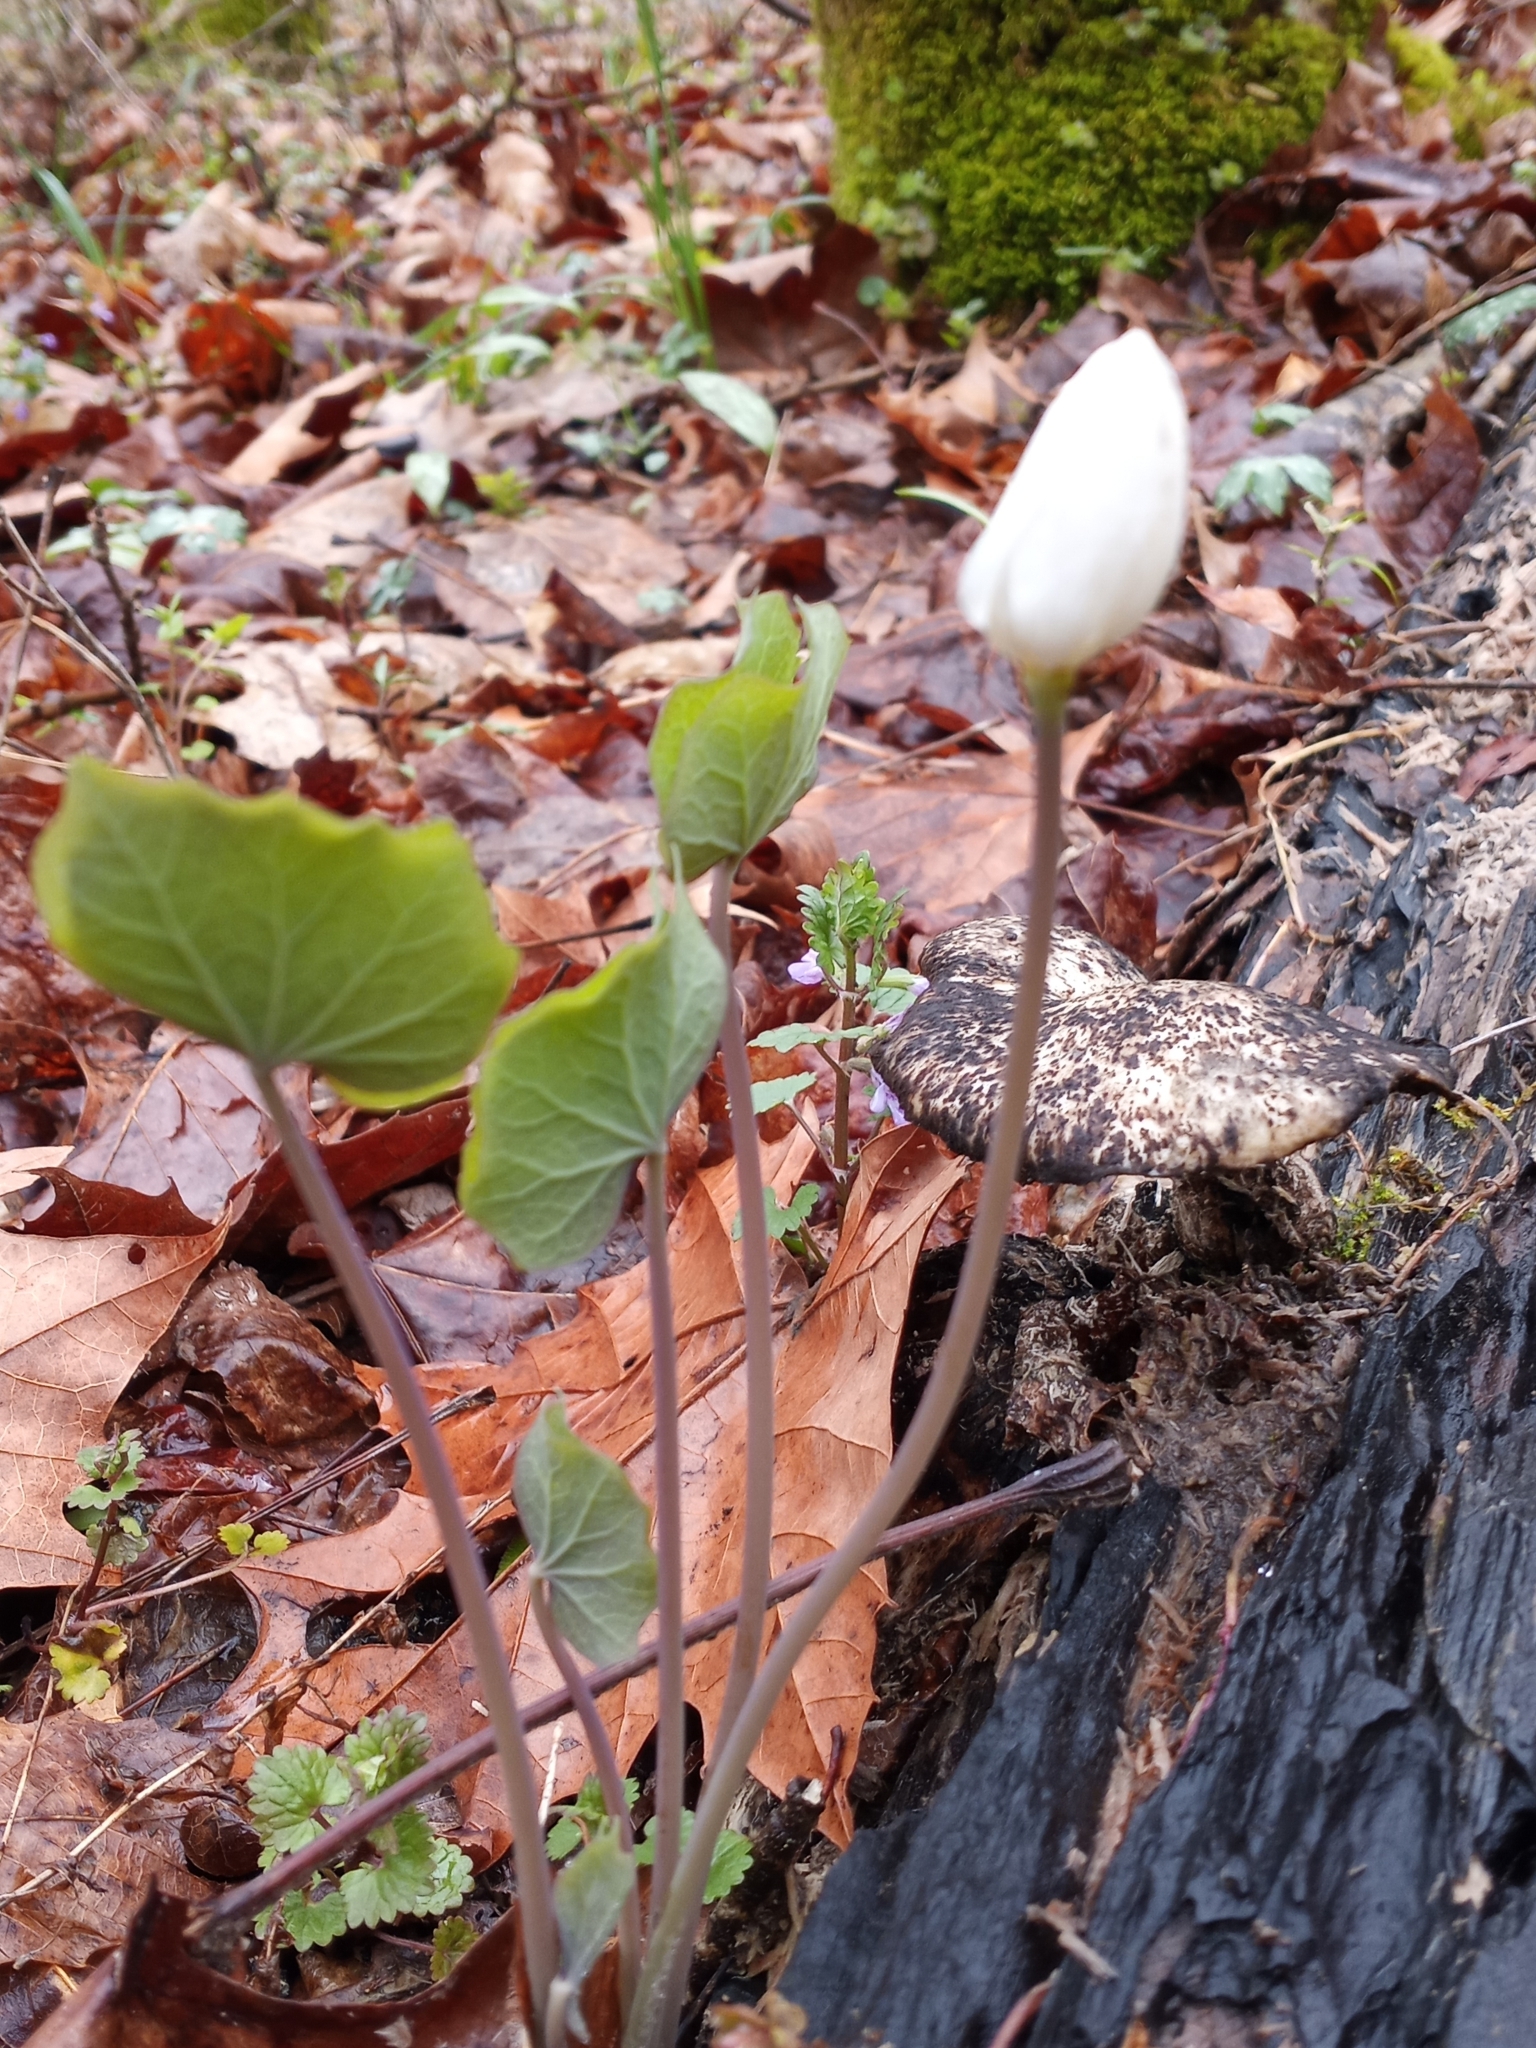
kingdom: Plantae
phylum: Tracheophyta
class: Magnoliopsida
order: Ranunculales
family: Berberidaceae
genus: Jeffersonia
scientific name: Jeffersonia diphylla
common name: Rheumatism-root
